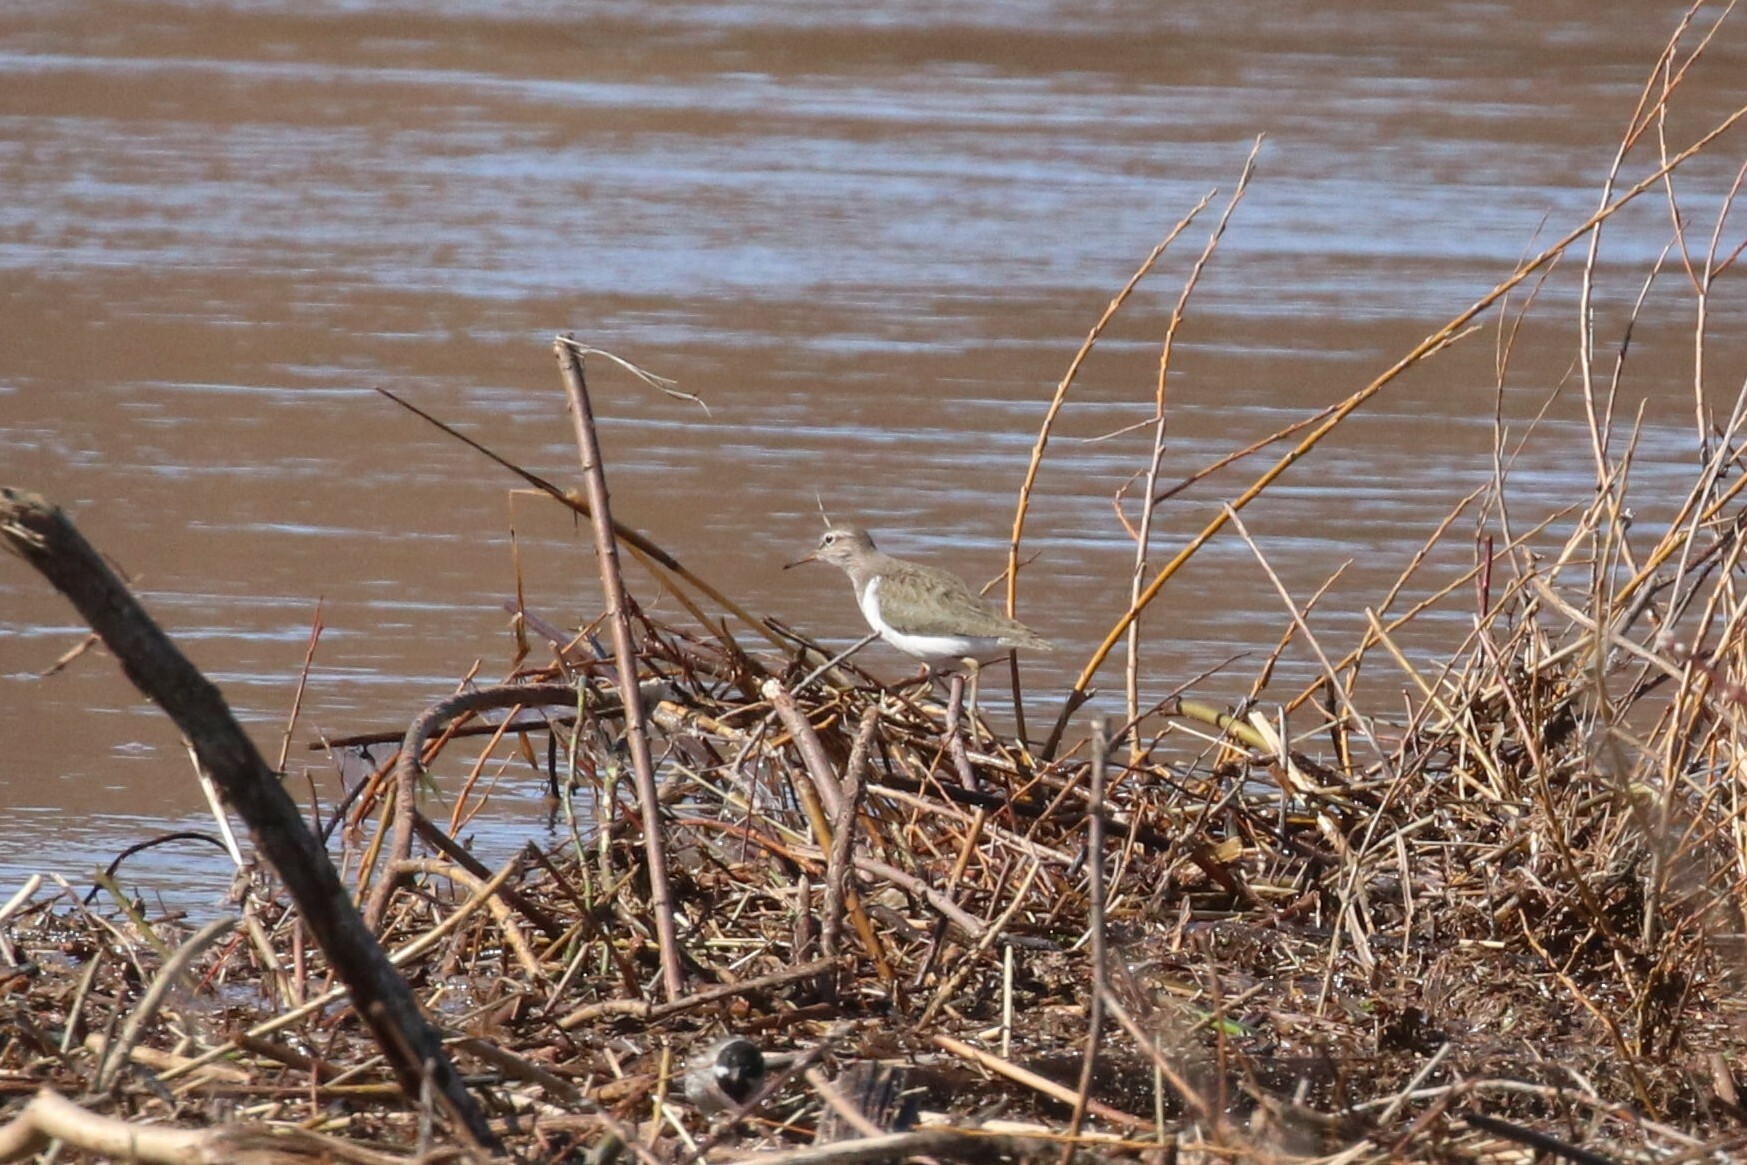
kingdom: Animalia
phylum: Chordata
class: Aves
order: Charadriiformes
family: Scolopacidae
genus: Actitis
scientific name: Actitis hypoleucos
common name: Common sandpiper
